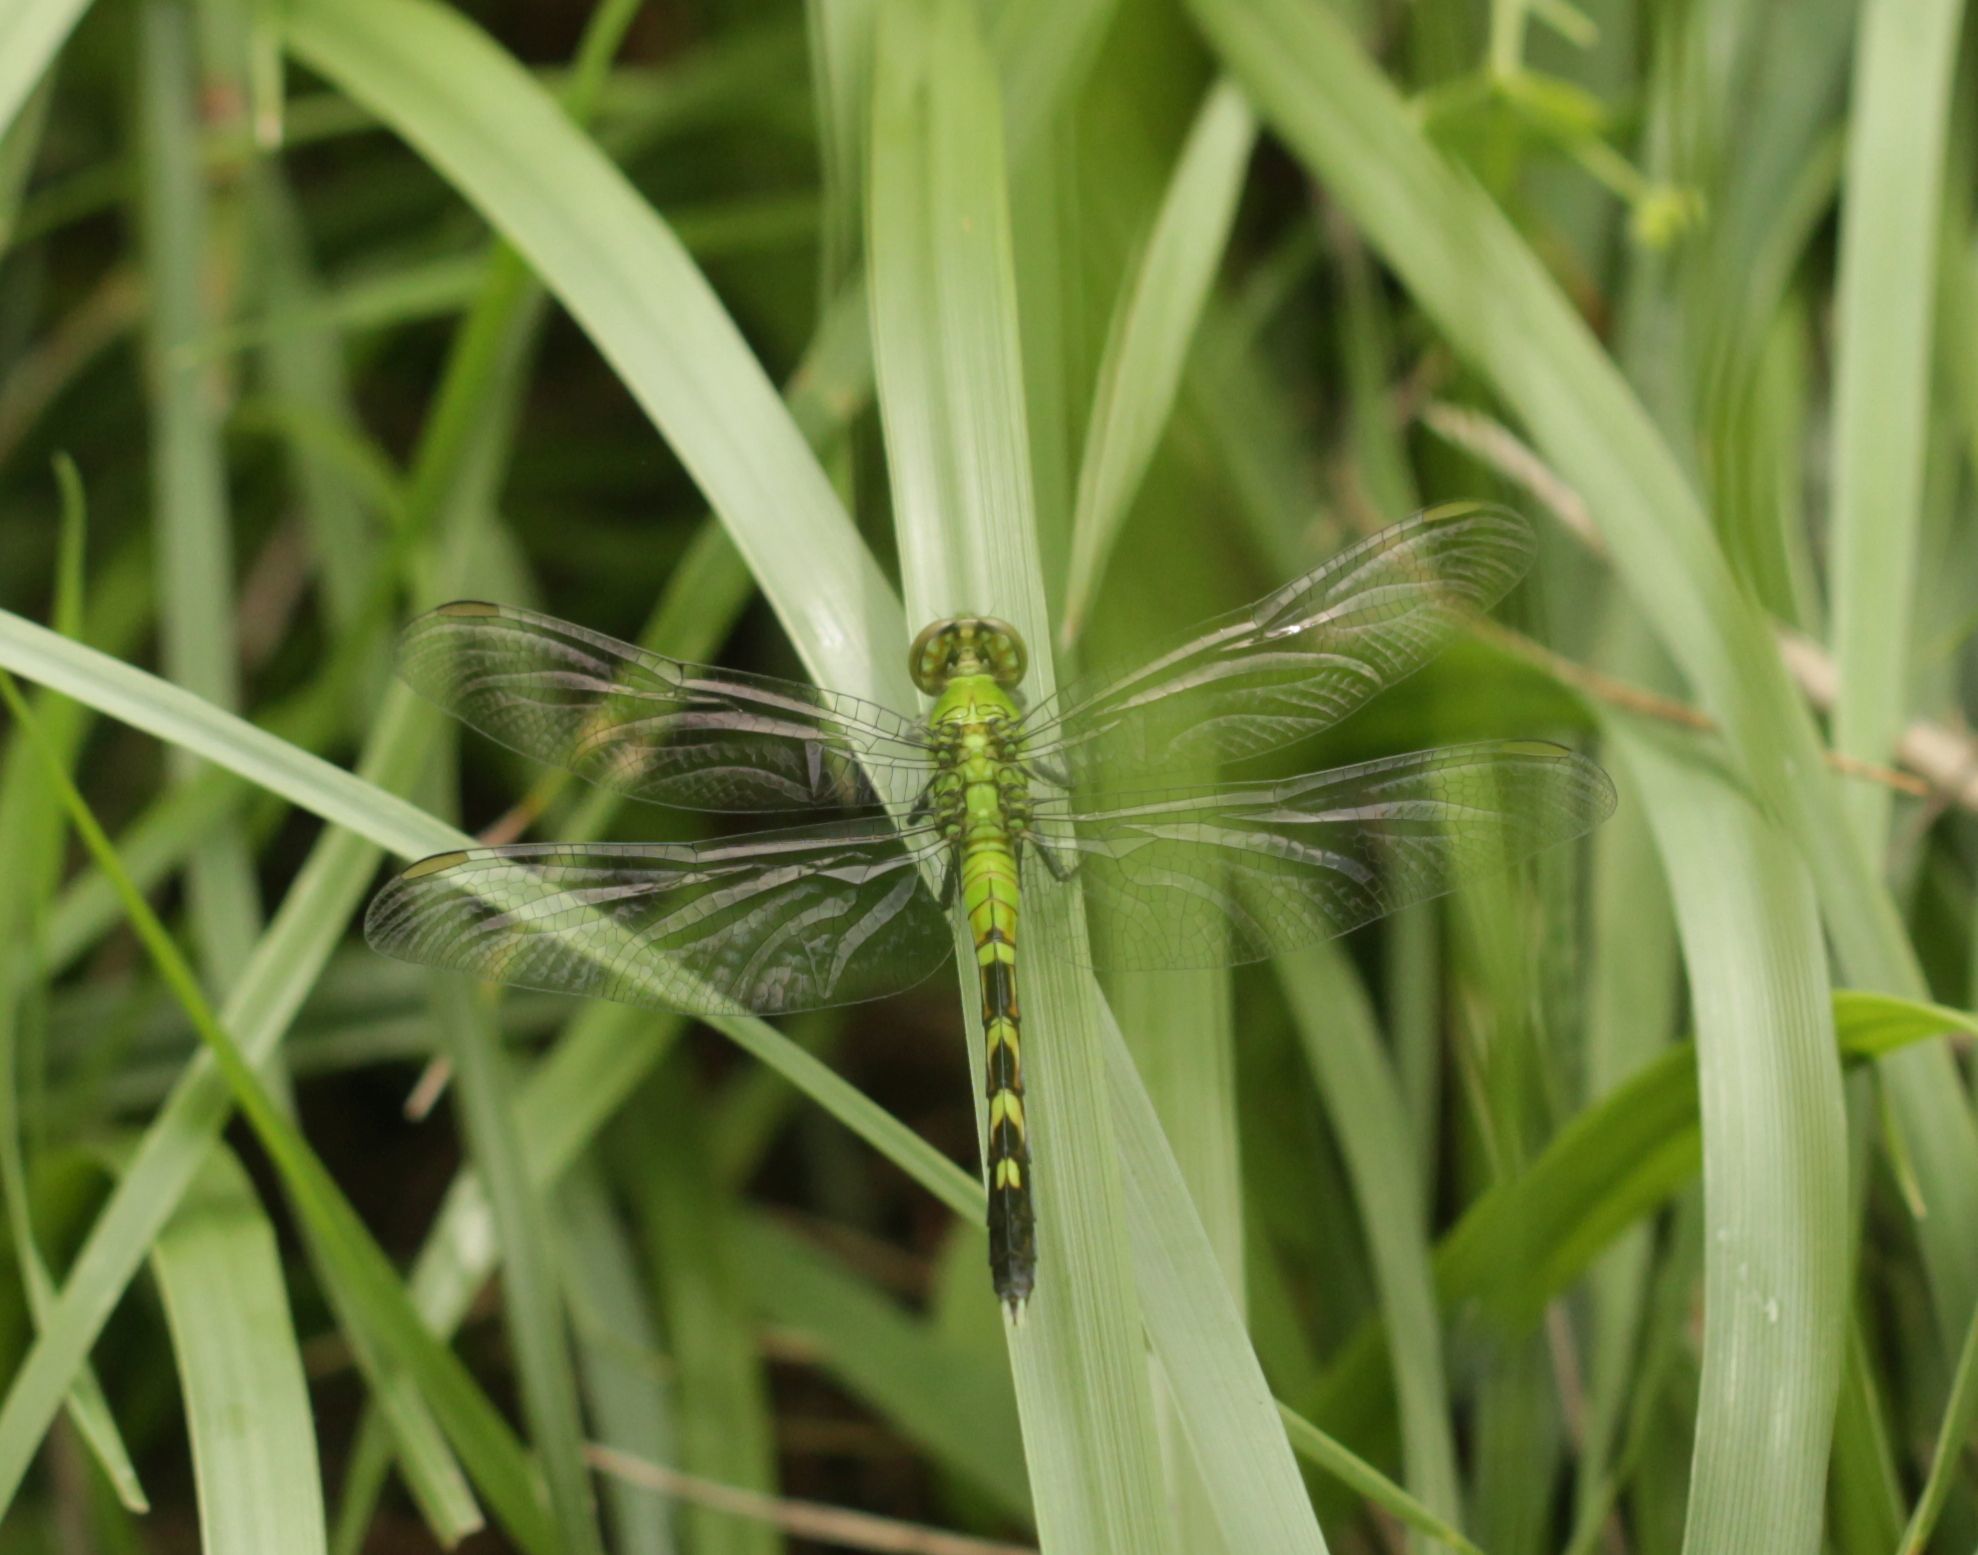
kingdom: Animalia
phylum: Arthropoda
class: Insecta
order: Odonata
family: Libellulidae
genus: Erythemis
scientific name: Erythemis simplicicollis
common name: Eastern pondhawk
